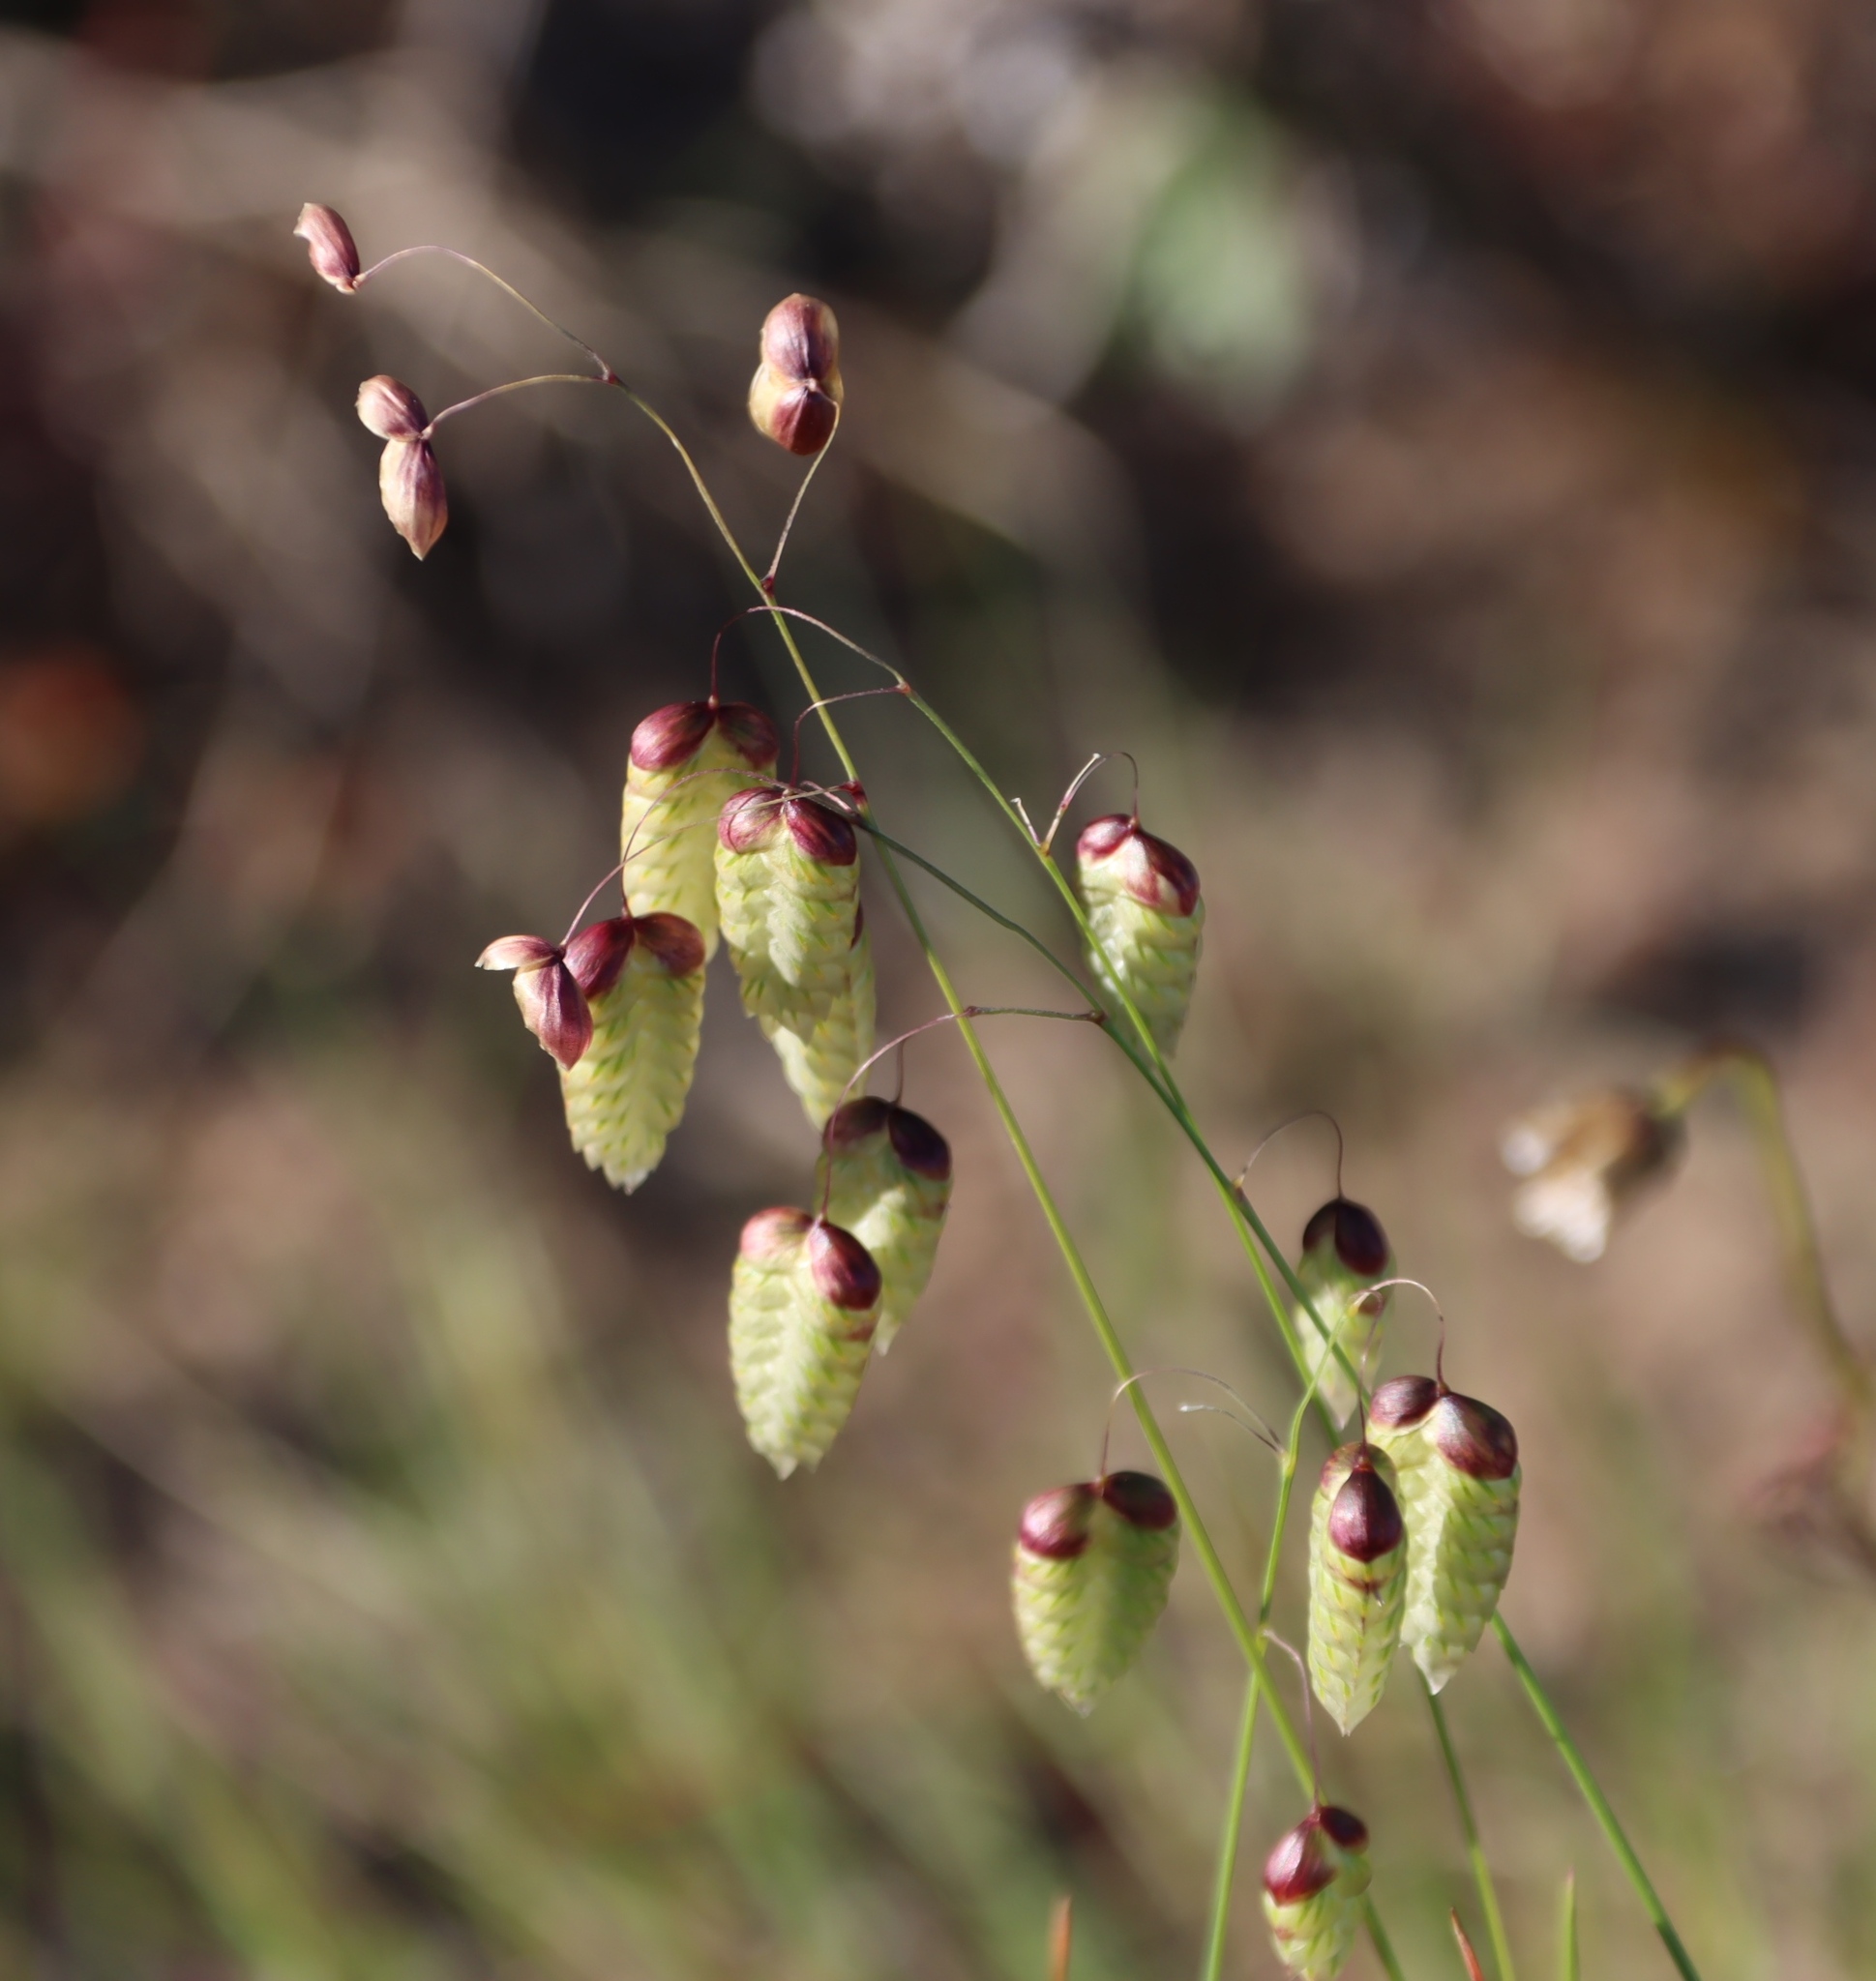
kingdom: Plantae
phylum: Tracheophyta
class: Liliopsida
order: Poales
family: Poaceae
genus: Briza
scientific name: Briza maxima
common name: Big quakinggrass
